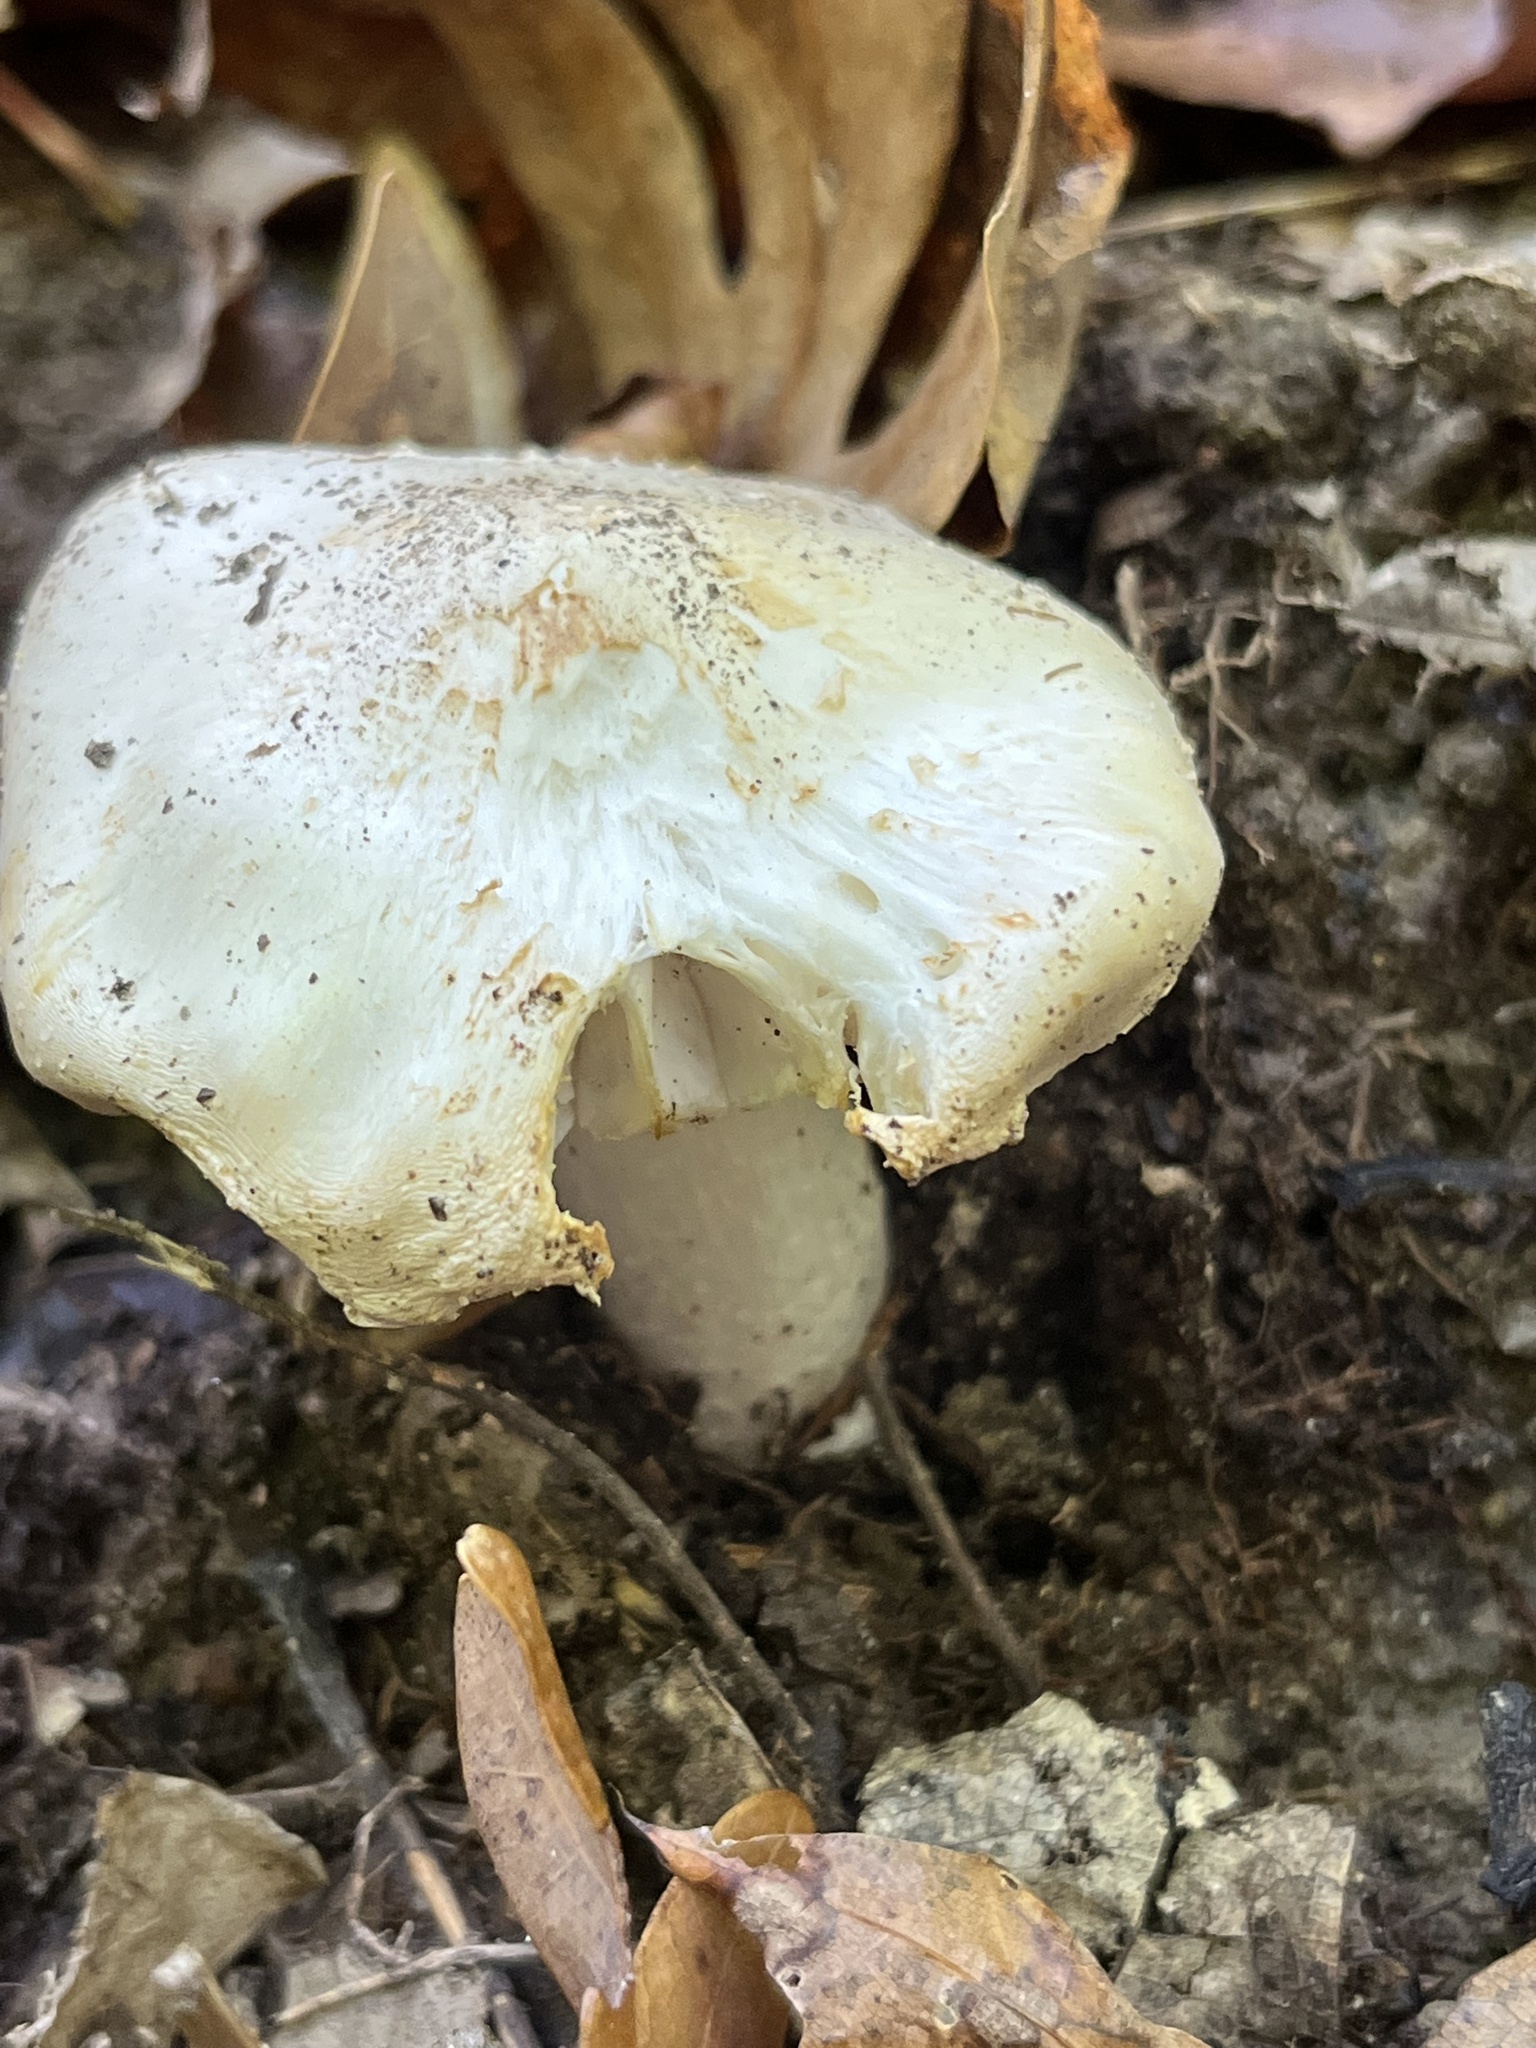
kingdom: Fungi
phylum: Basidiomycota
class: Agaricomycetes
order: Agaricales
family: Pluteaceae
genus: Pluteus
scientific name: Pluteus petasatus
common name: Scaly shield
